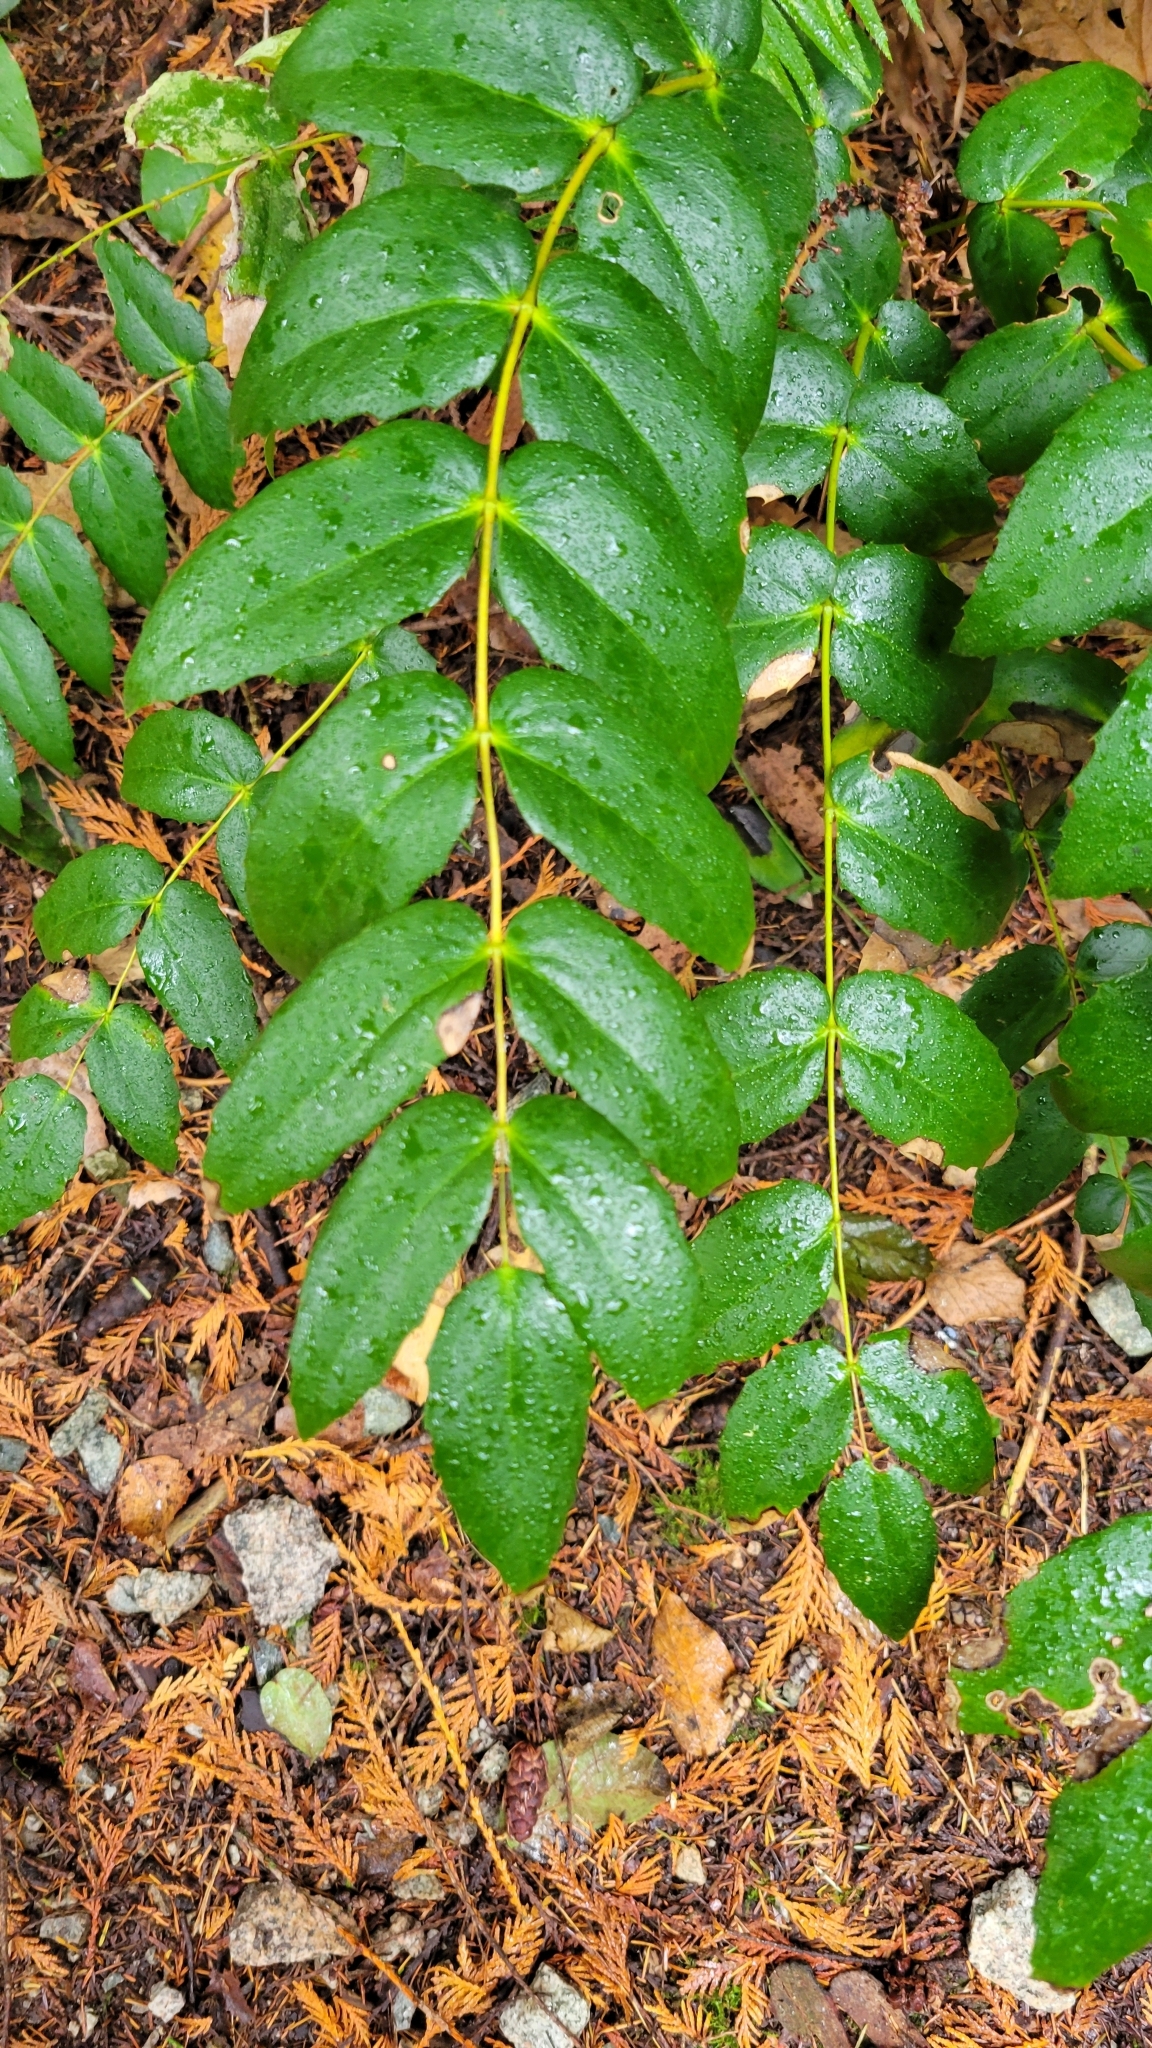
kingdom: Plantae
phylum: Tracheophyta
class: Magnoliopsida
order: Ranunculales
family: Berberidaceae
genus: Mahonia
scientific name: Mahonia nervosa
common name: Cascade oregon-grape
